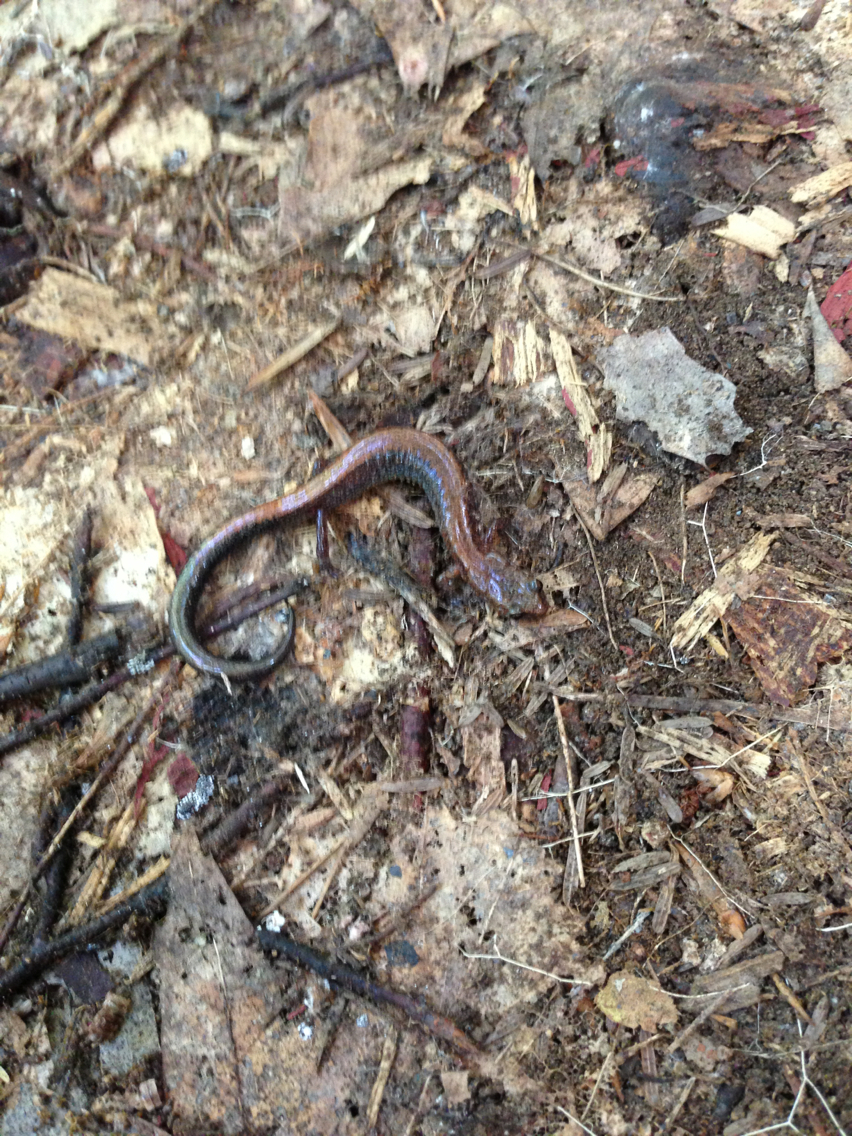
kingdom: Animalia
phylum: Chordata
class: Amphibia
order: Caudata
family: Plethodontidae
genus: Plethodon
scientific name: Plethodon cinereus
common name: Redback salamander
